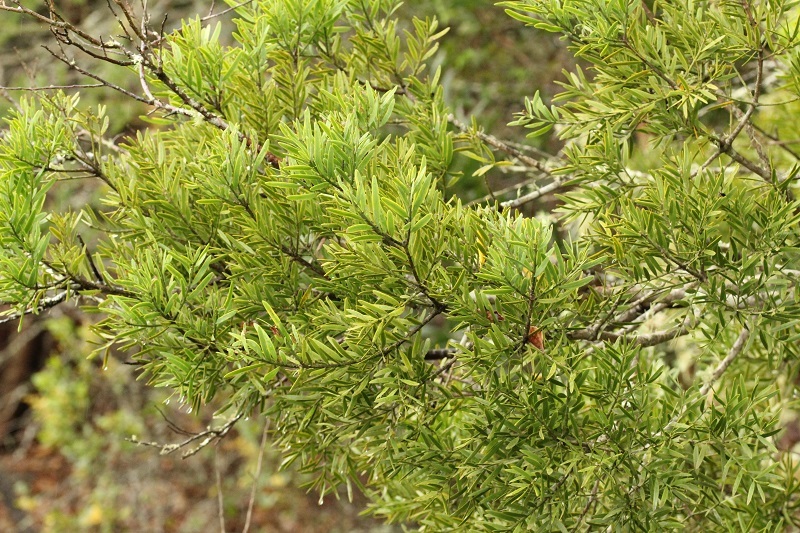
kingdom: Plantae
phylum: Tracheophyta
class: Pinopsida
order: Pinales
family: Podocarpaceae
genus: Afrocarpus
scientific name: Afrocarpus falcatus
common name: Bastard yellowwood
